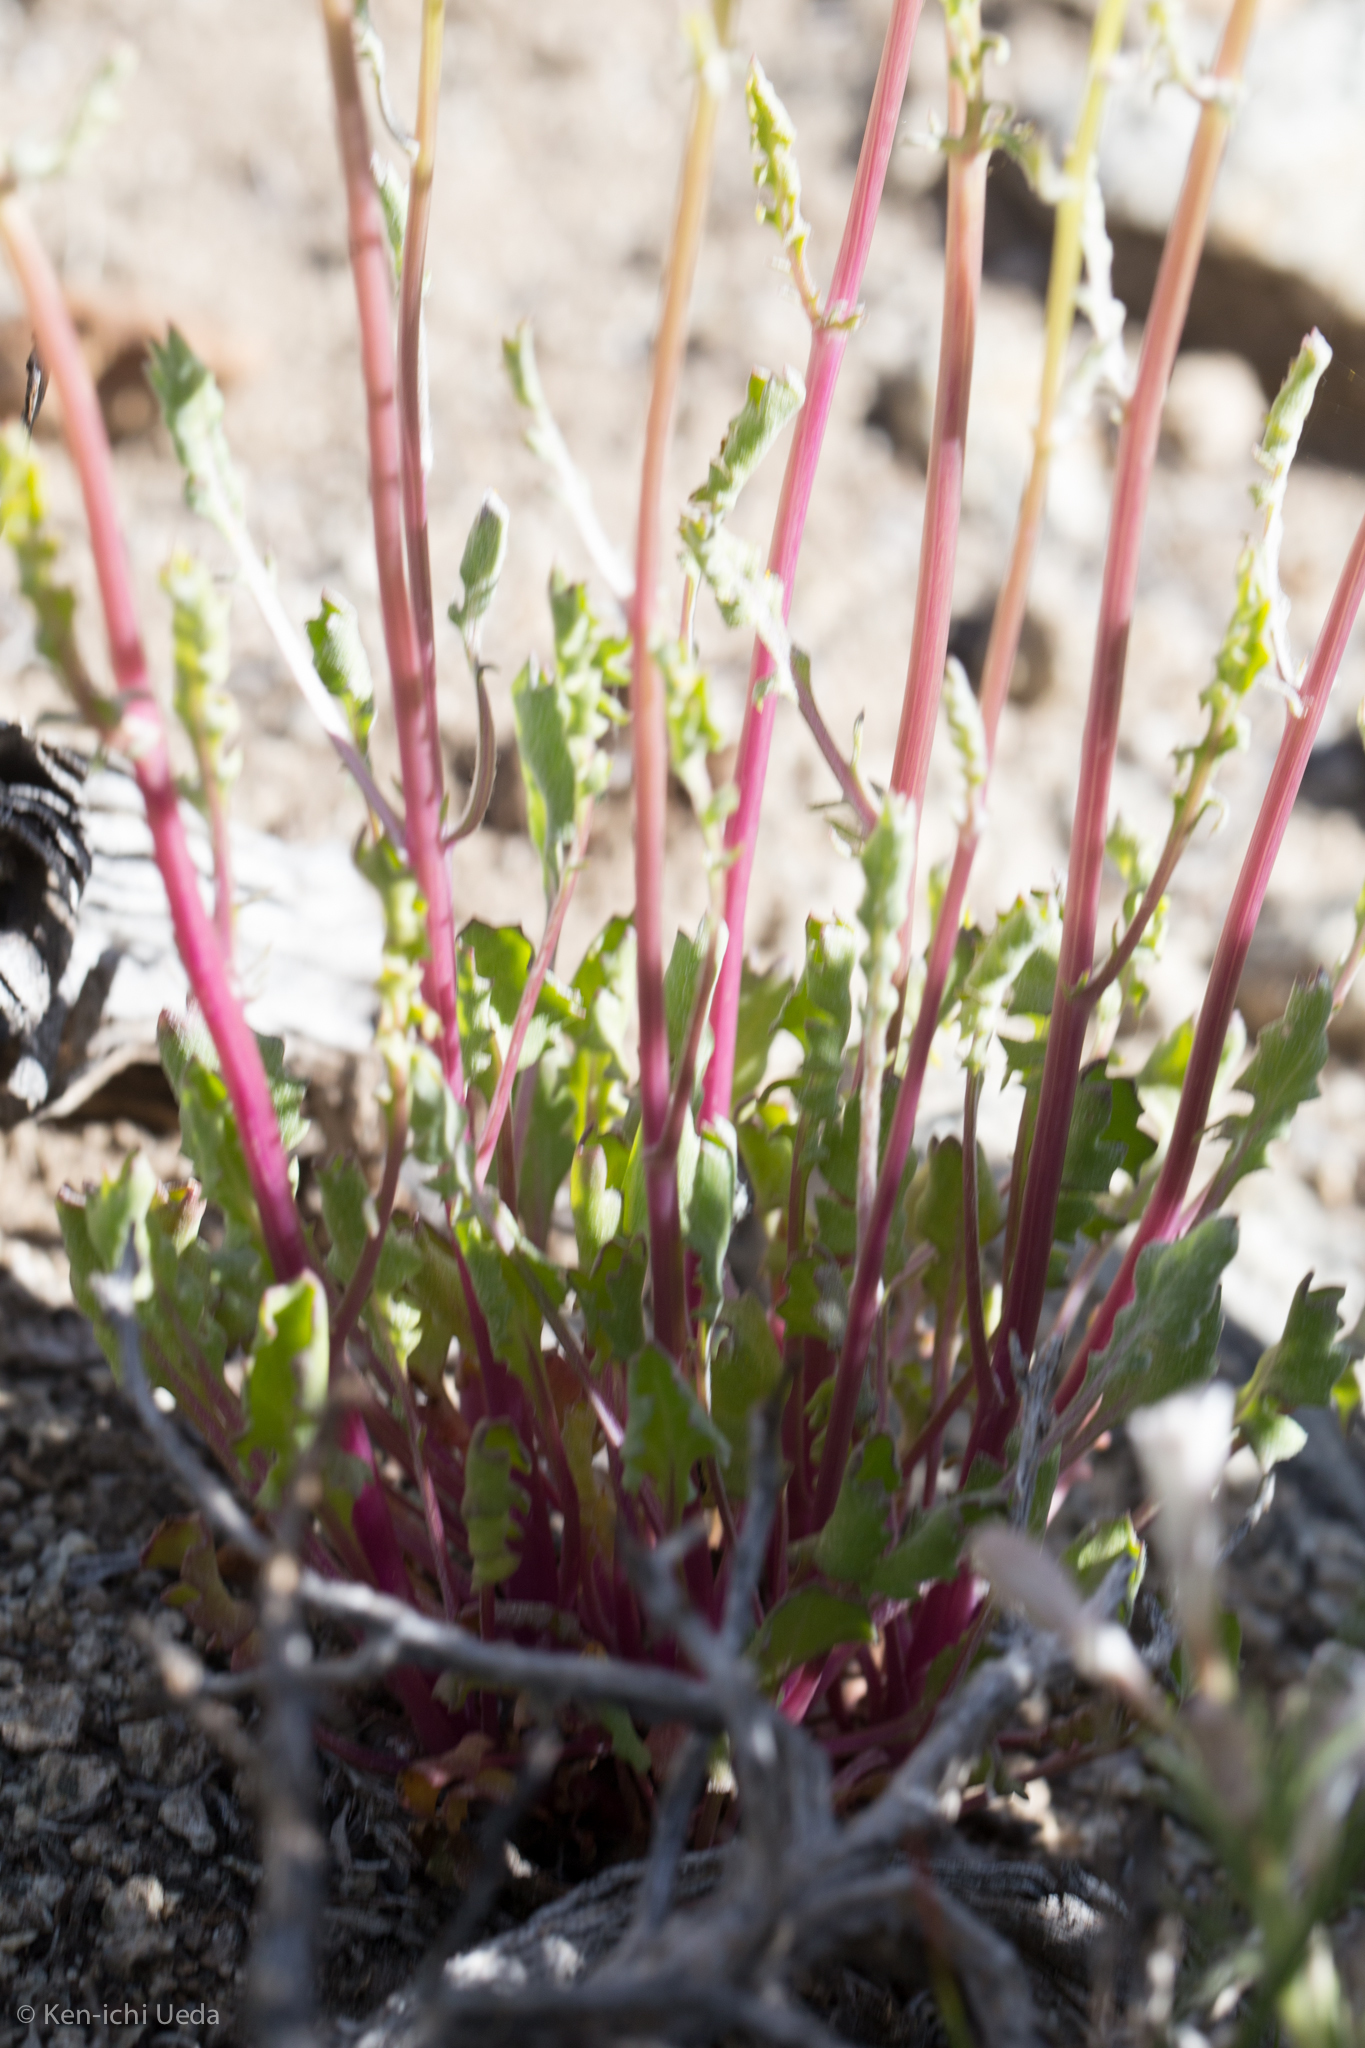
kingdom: Plantae
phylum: Tracheophyta
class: Magnoliopsida
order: Asterales
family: Asteraceae
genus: Packera
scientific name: Packera multilobata
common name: Lobe-leaf groundsel
